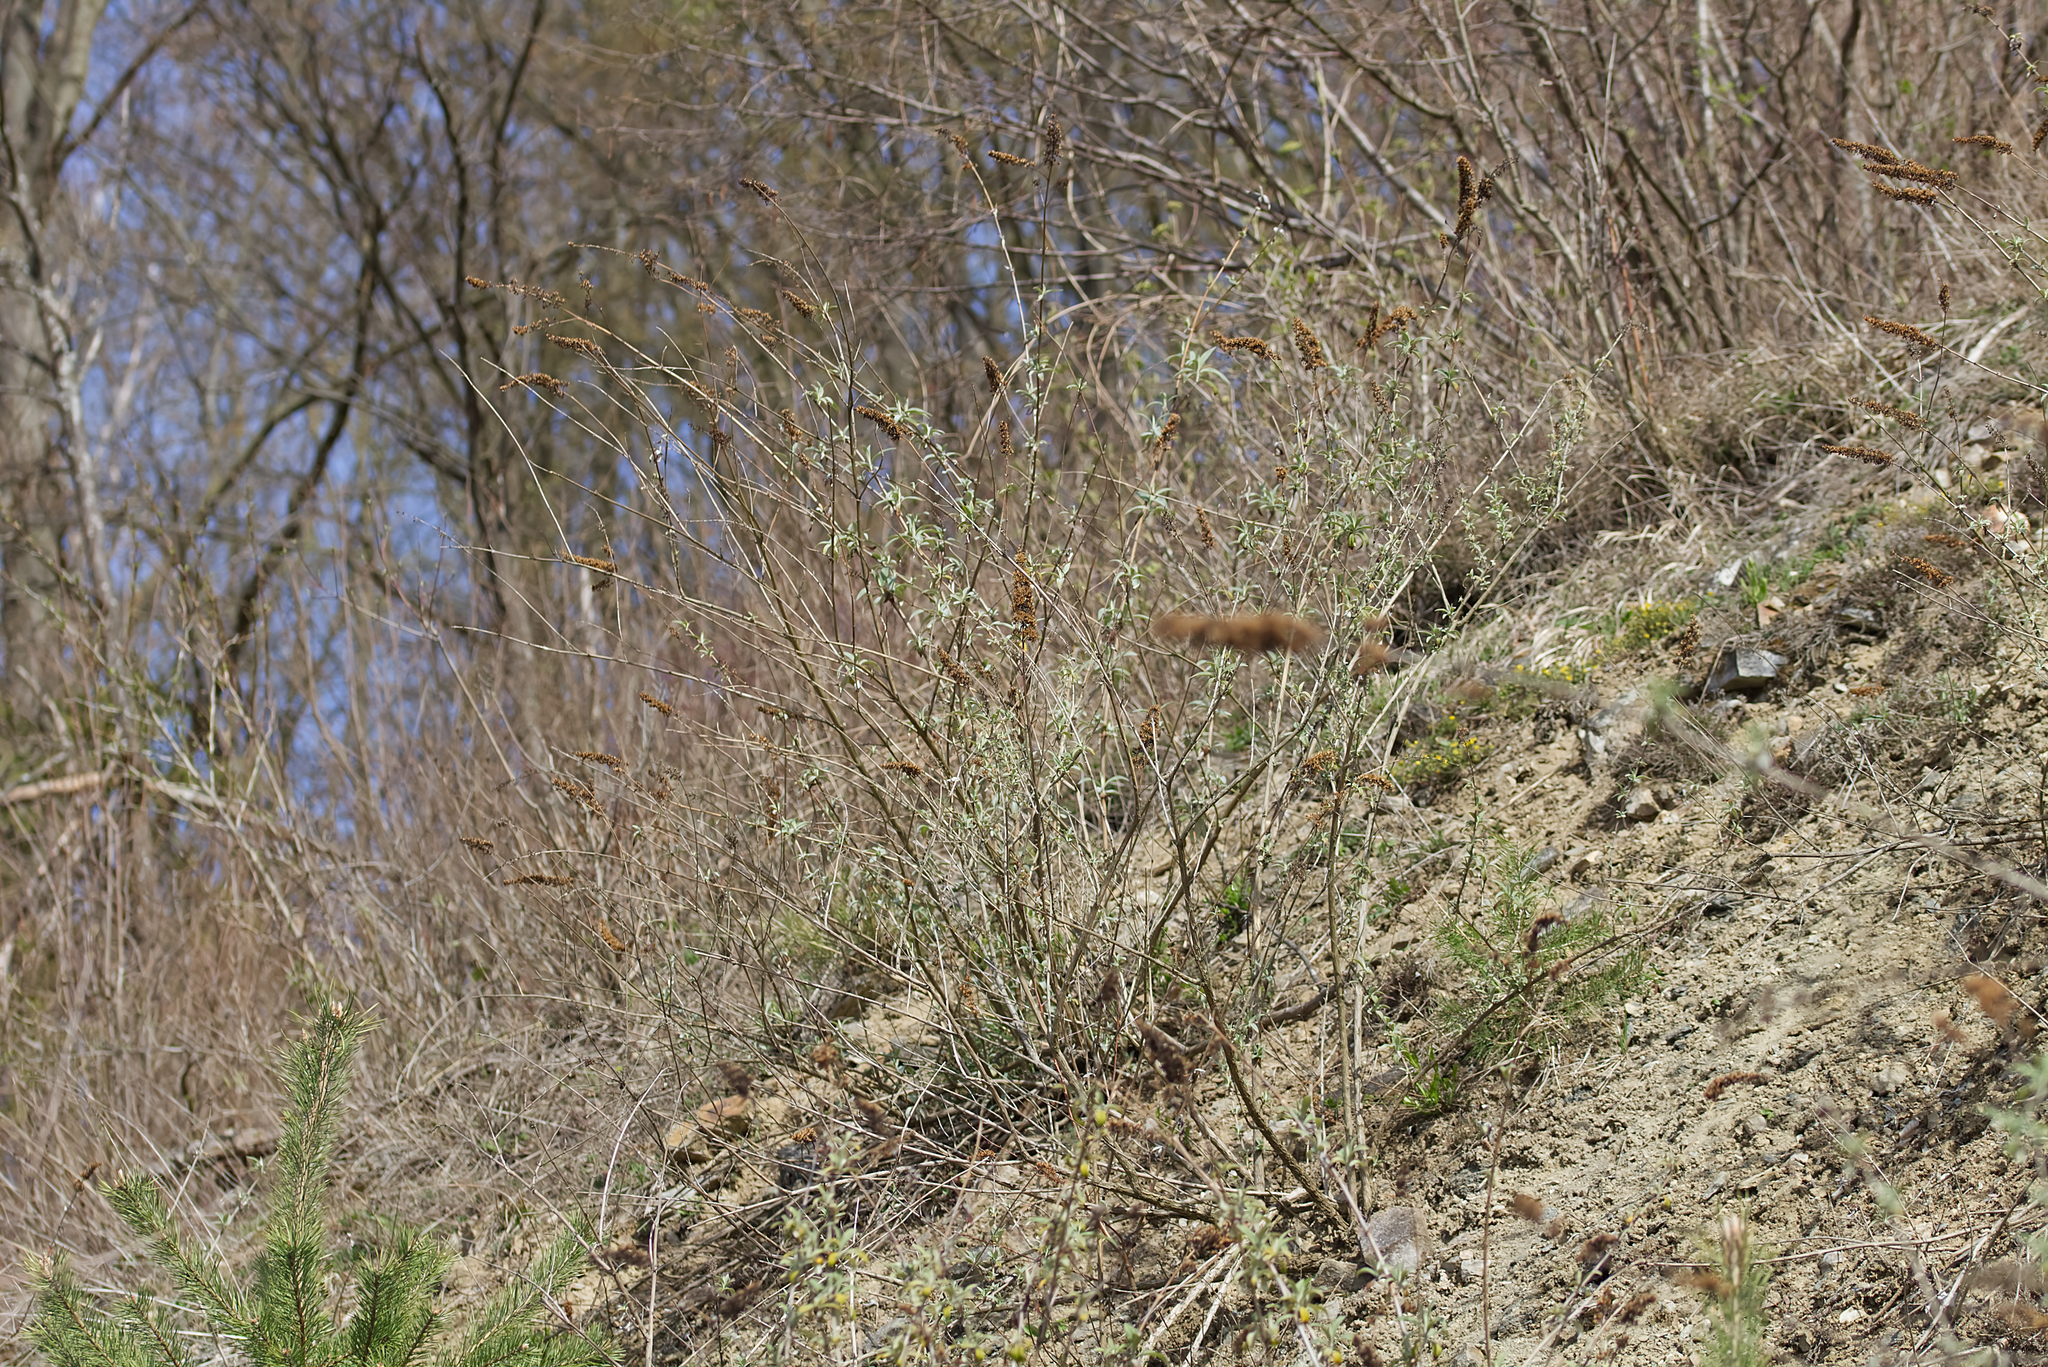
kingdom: Plantae
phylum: Tracheophyta
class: Magnoliopsida
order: Lamiales
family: Scrophulariaceae
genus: Buddleja
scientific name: Buddleja davidii
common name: Butterfly-bush
